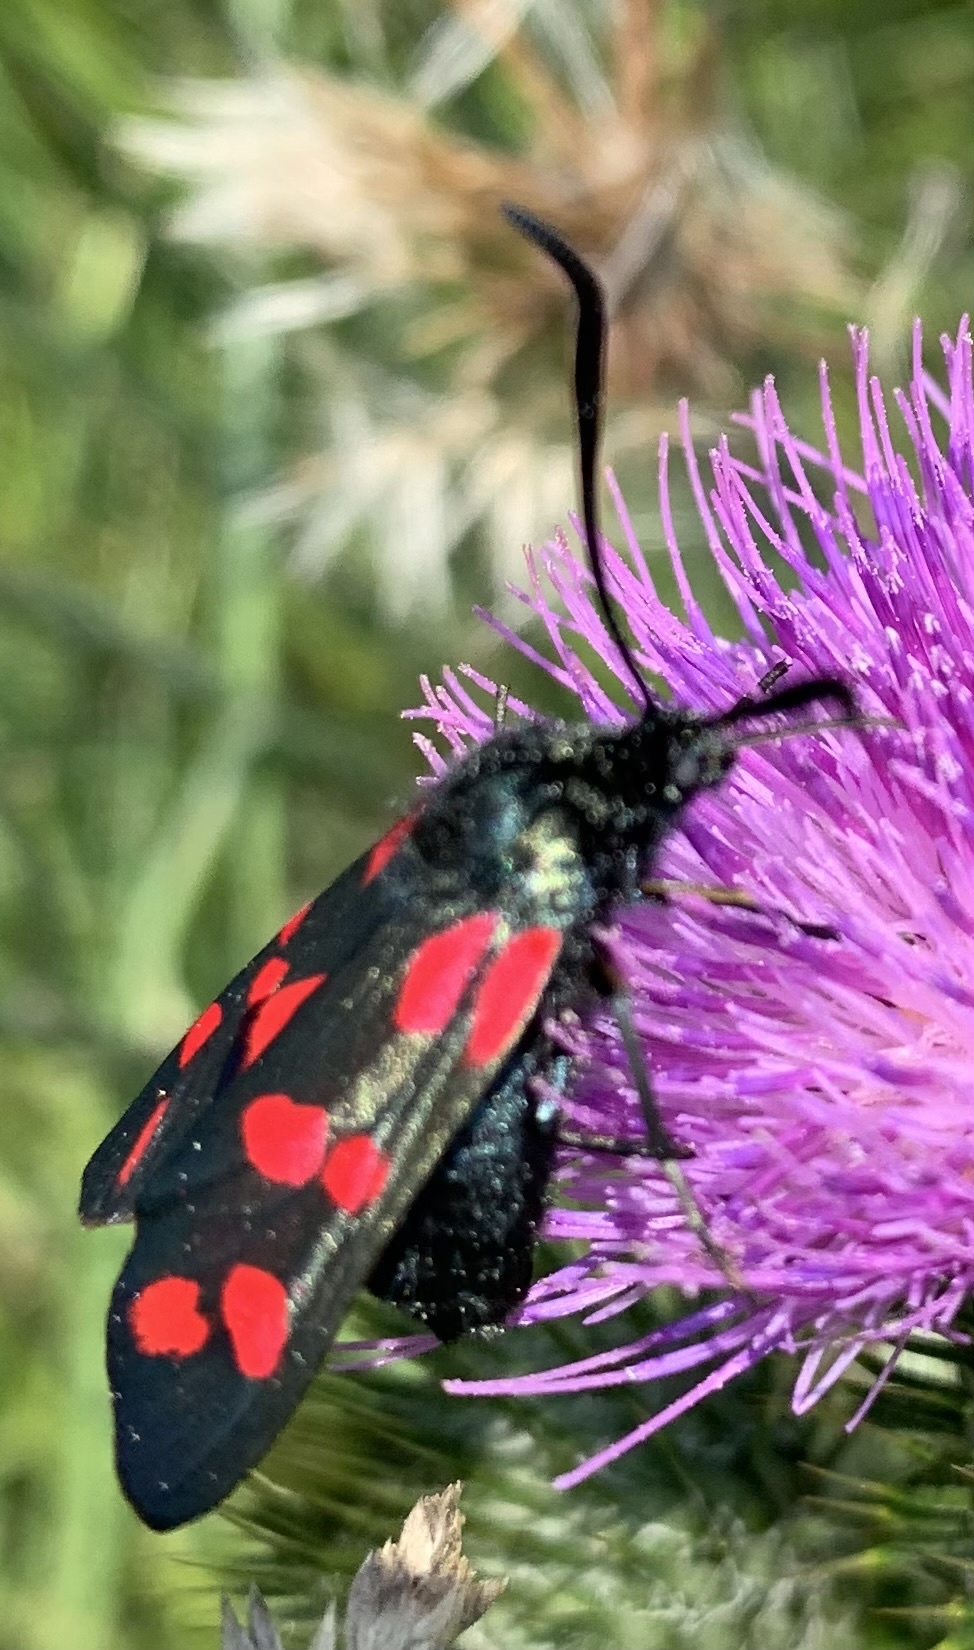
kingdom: Animalia
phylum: Arthropoda
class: Insecta
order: Lepidoptera
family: Zygaenidae
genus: Zygaena
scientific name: Zygaena filipendulae
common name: Six-spot burnet
